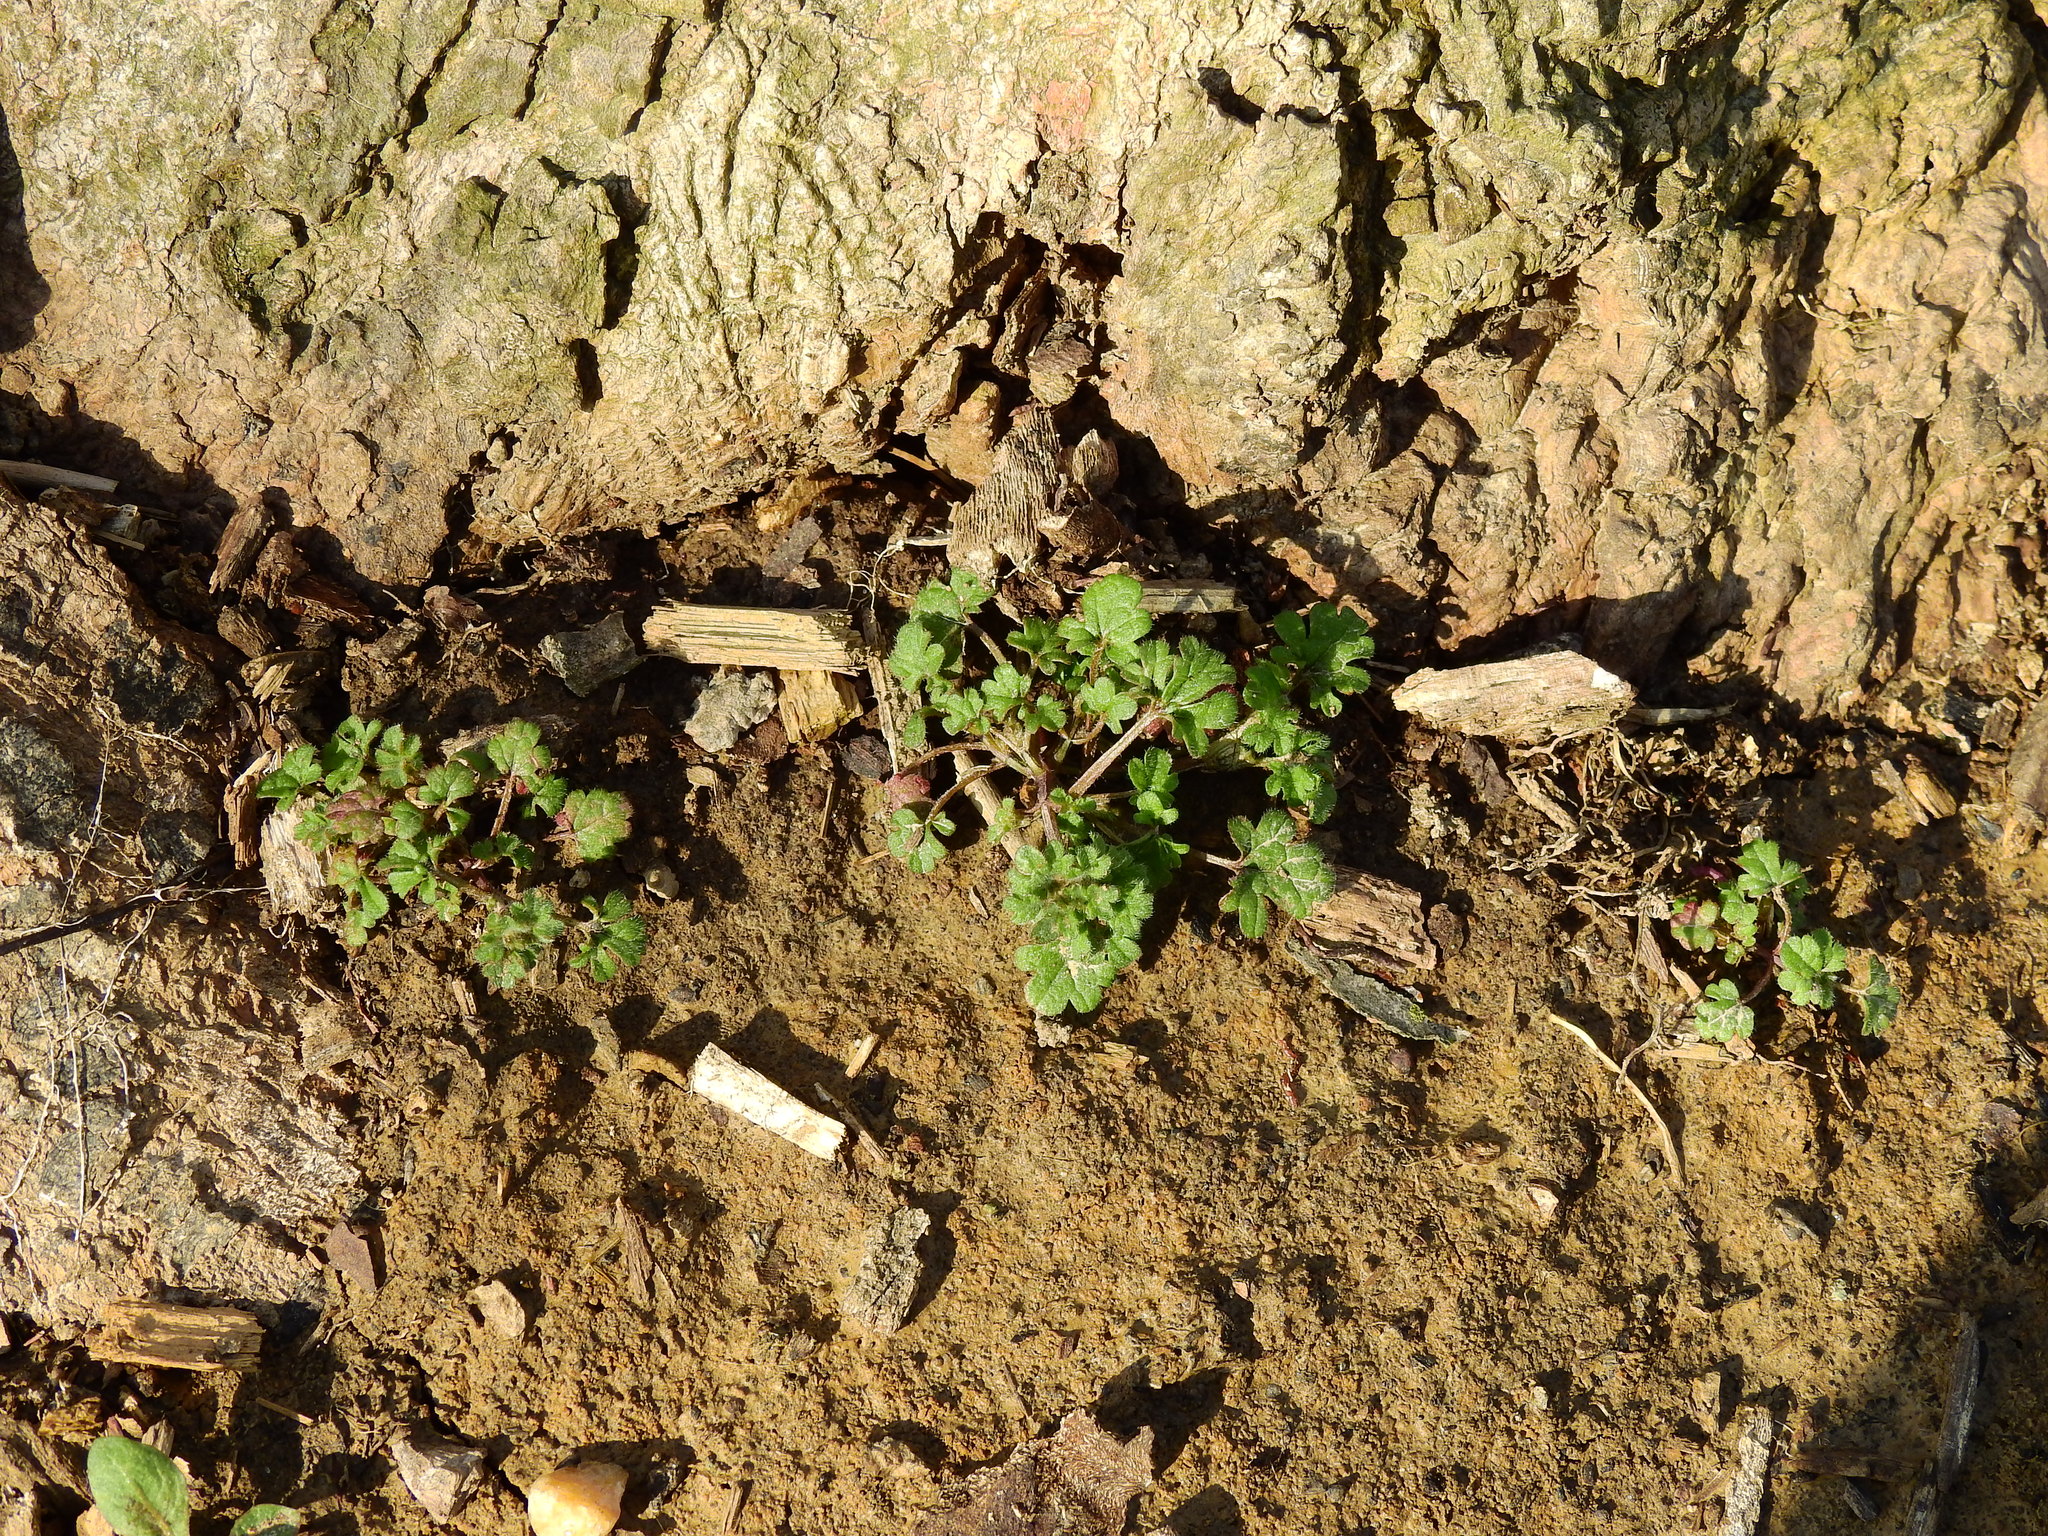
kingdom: Plantae
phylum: Tracheophyta
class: Magnoliopsida
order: Lamiales
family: Lamiaceae
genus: Lamium
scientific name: Lamium amplexicaule
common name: Henbit dead-nettle
